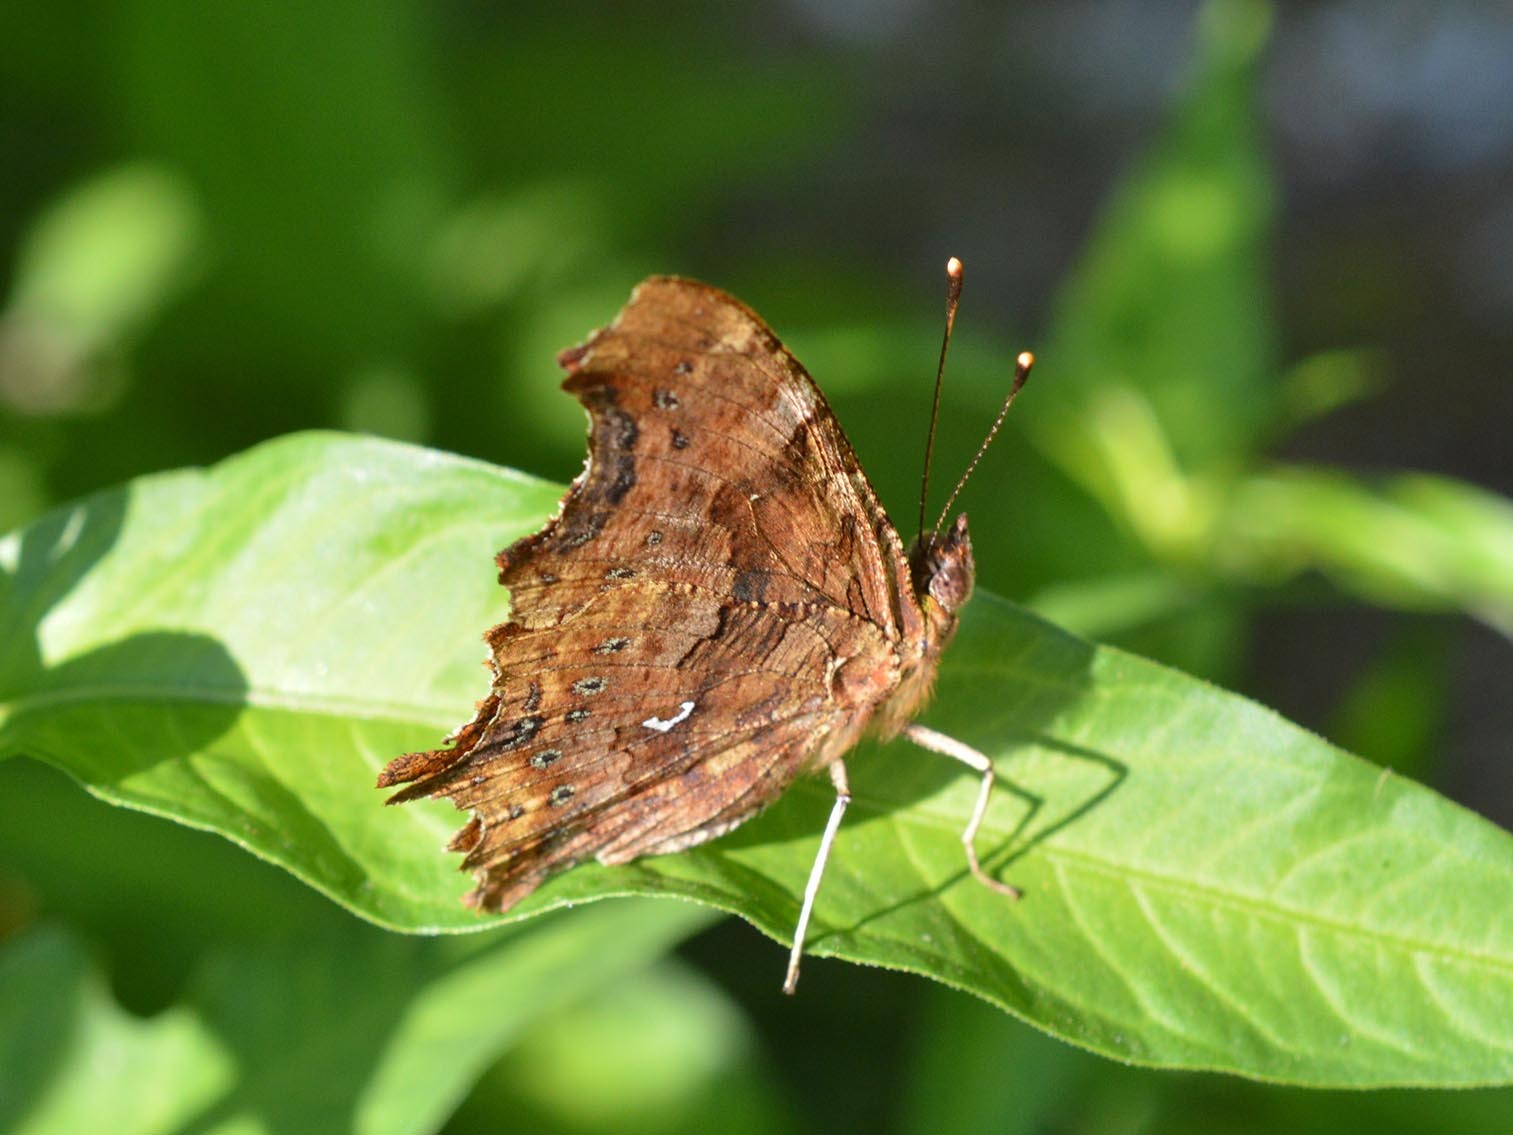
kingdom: Animalia
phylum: Arthropoda
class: Insecta
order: Lepidoptera
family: Nymphalidae
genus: Polygonia
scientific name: Polygonia c-album
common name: Comma
